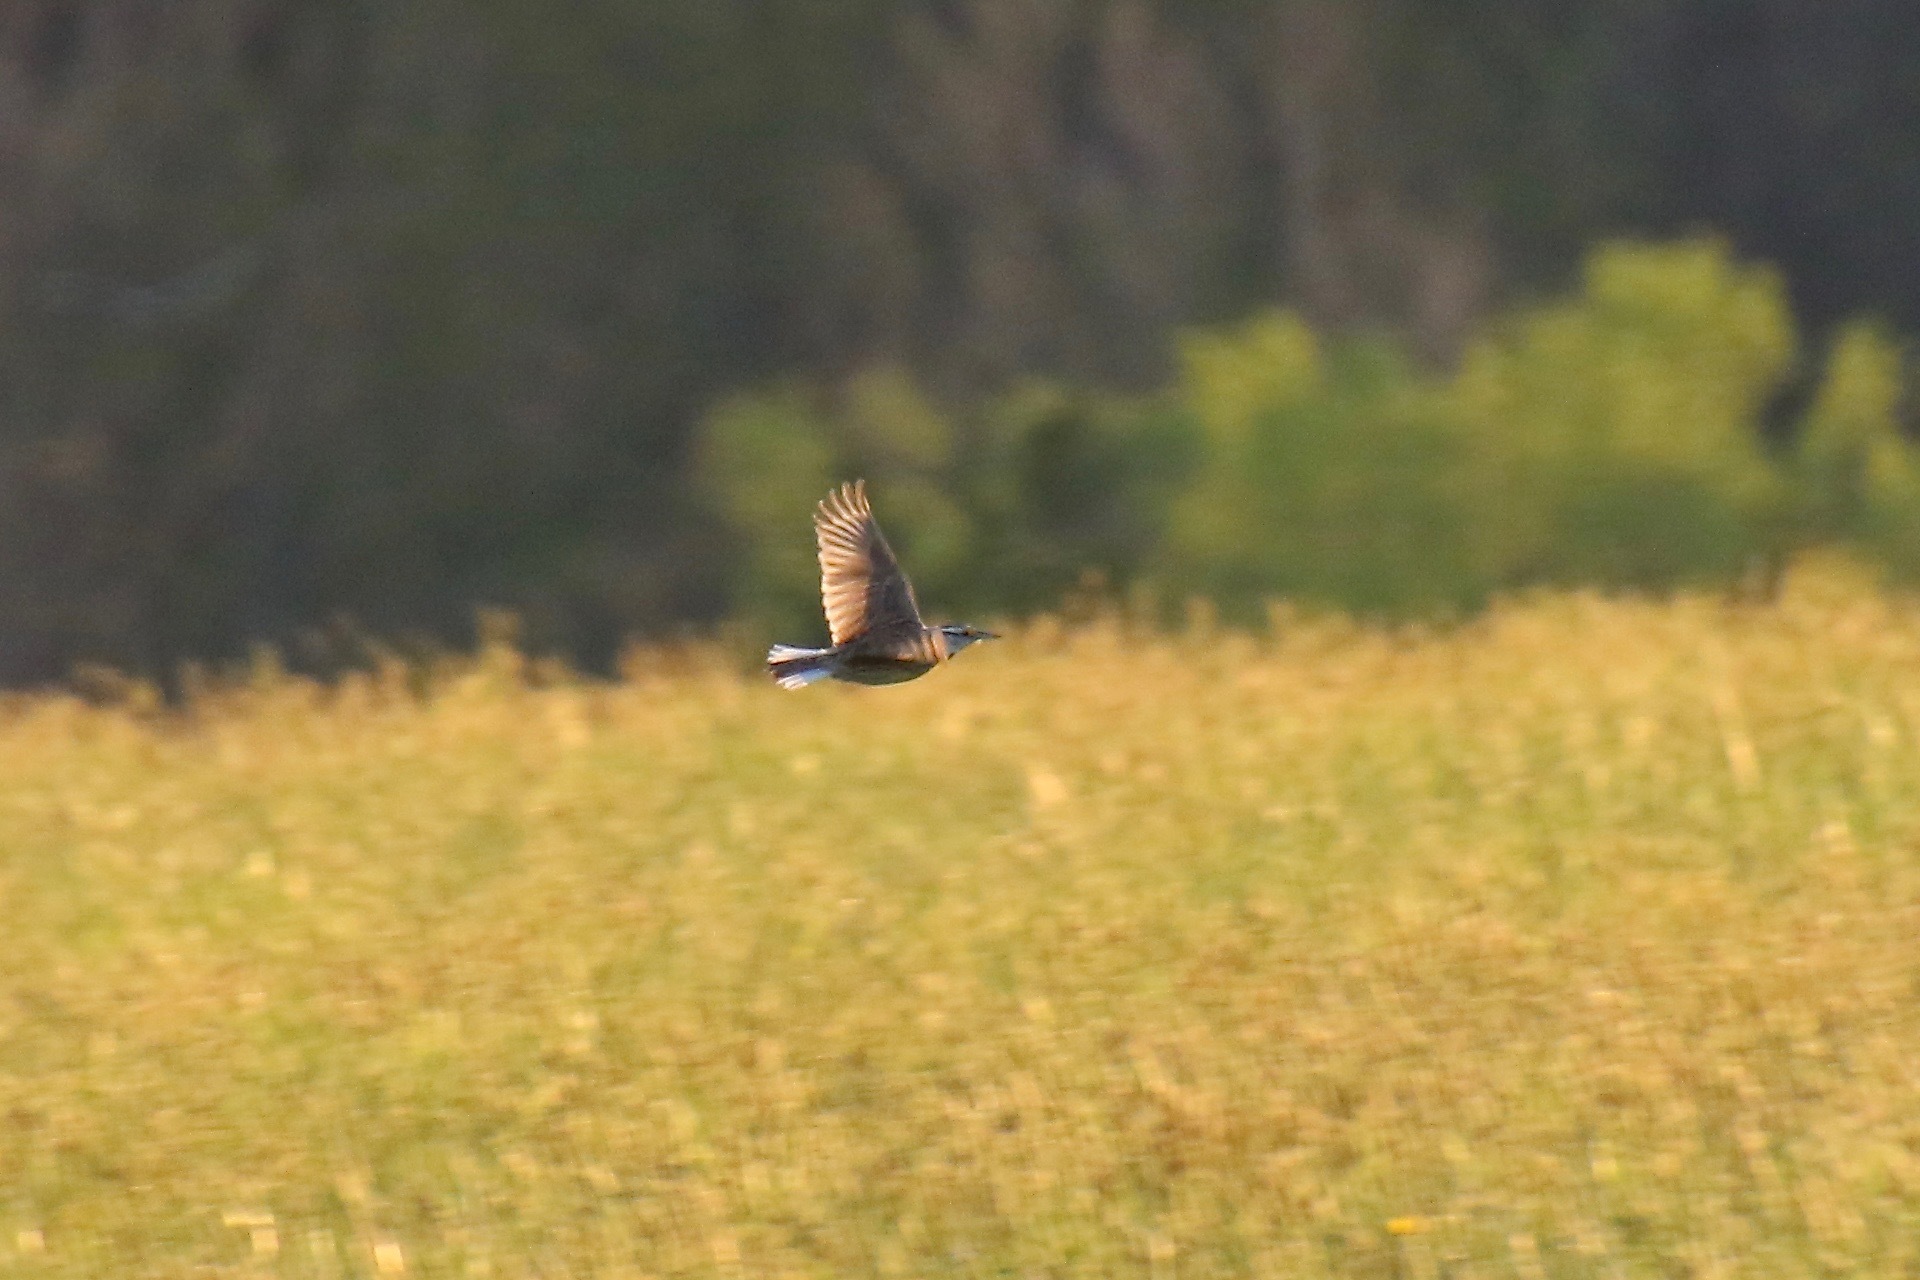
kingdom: Animalia
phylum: Chordata
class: Aves
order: Passeriformes
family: Icteridae
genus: Sturnella
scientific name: Sturnella magna
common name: Eastern meadowlark
